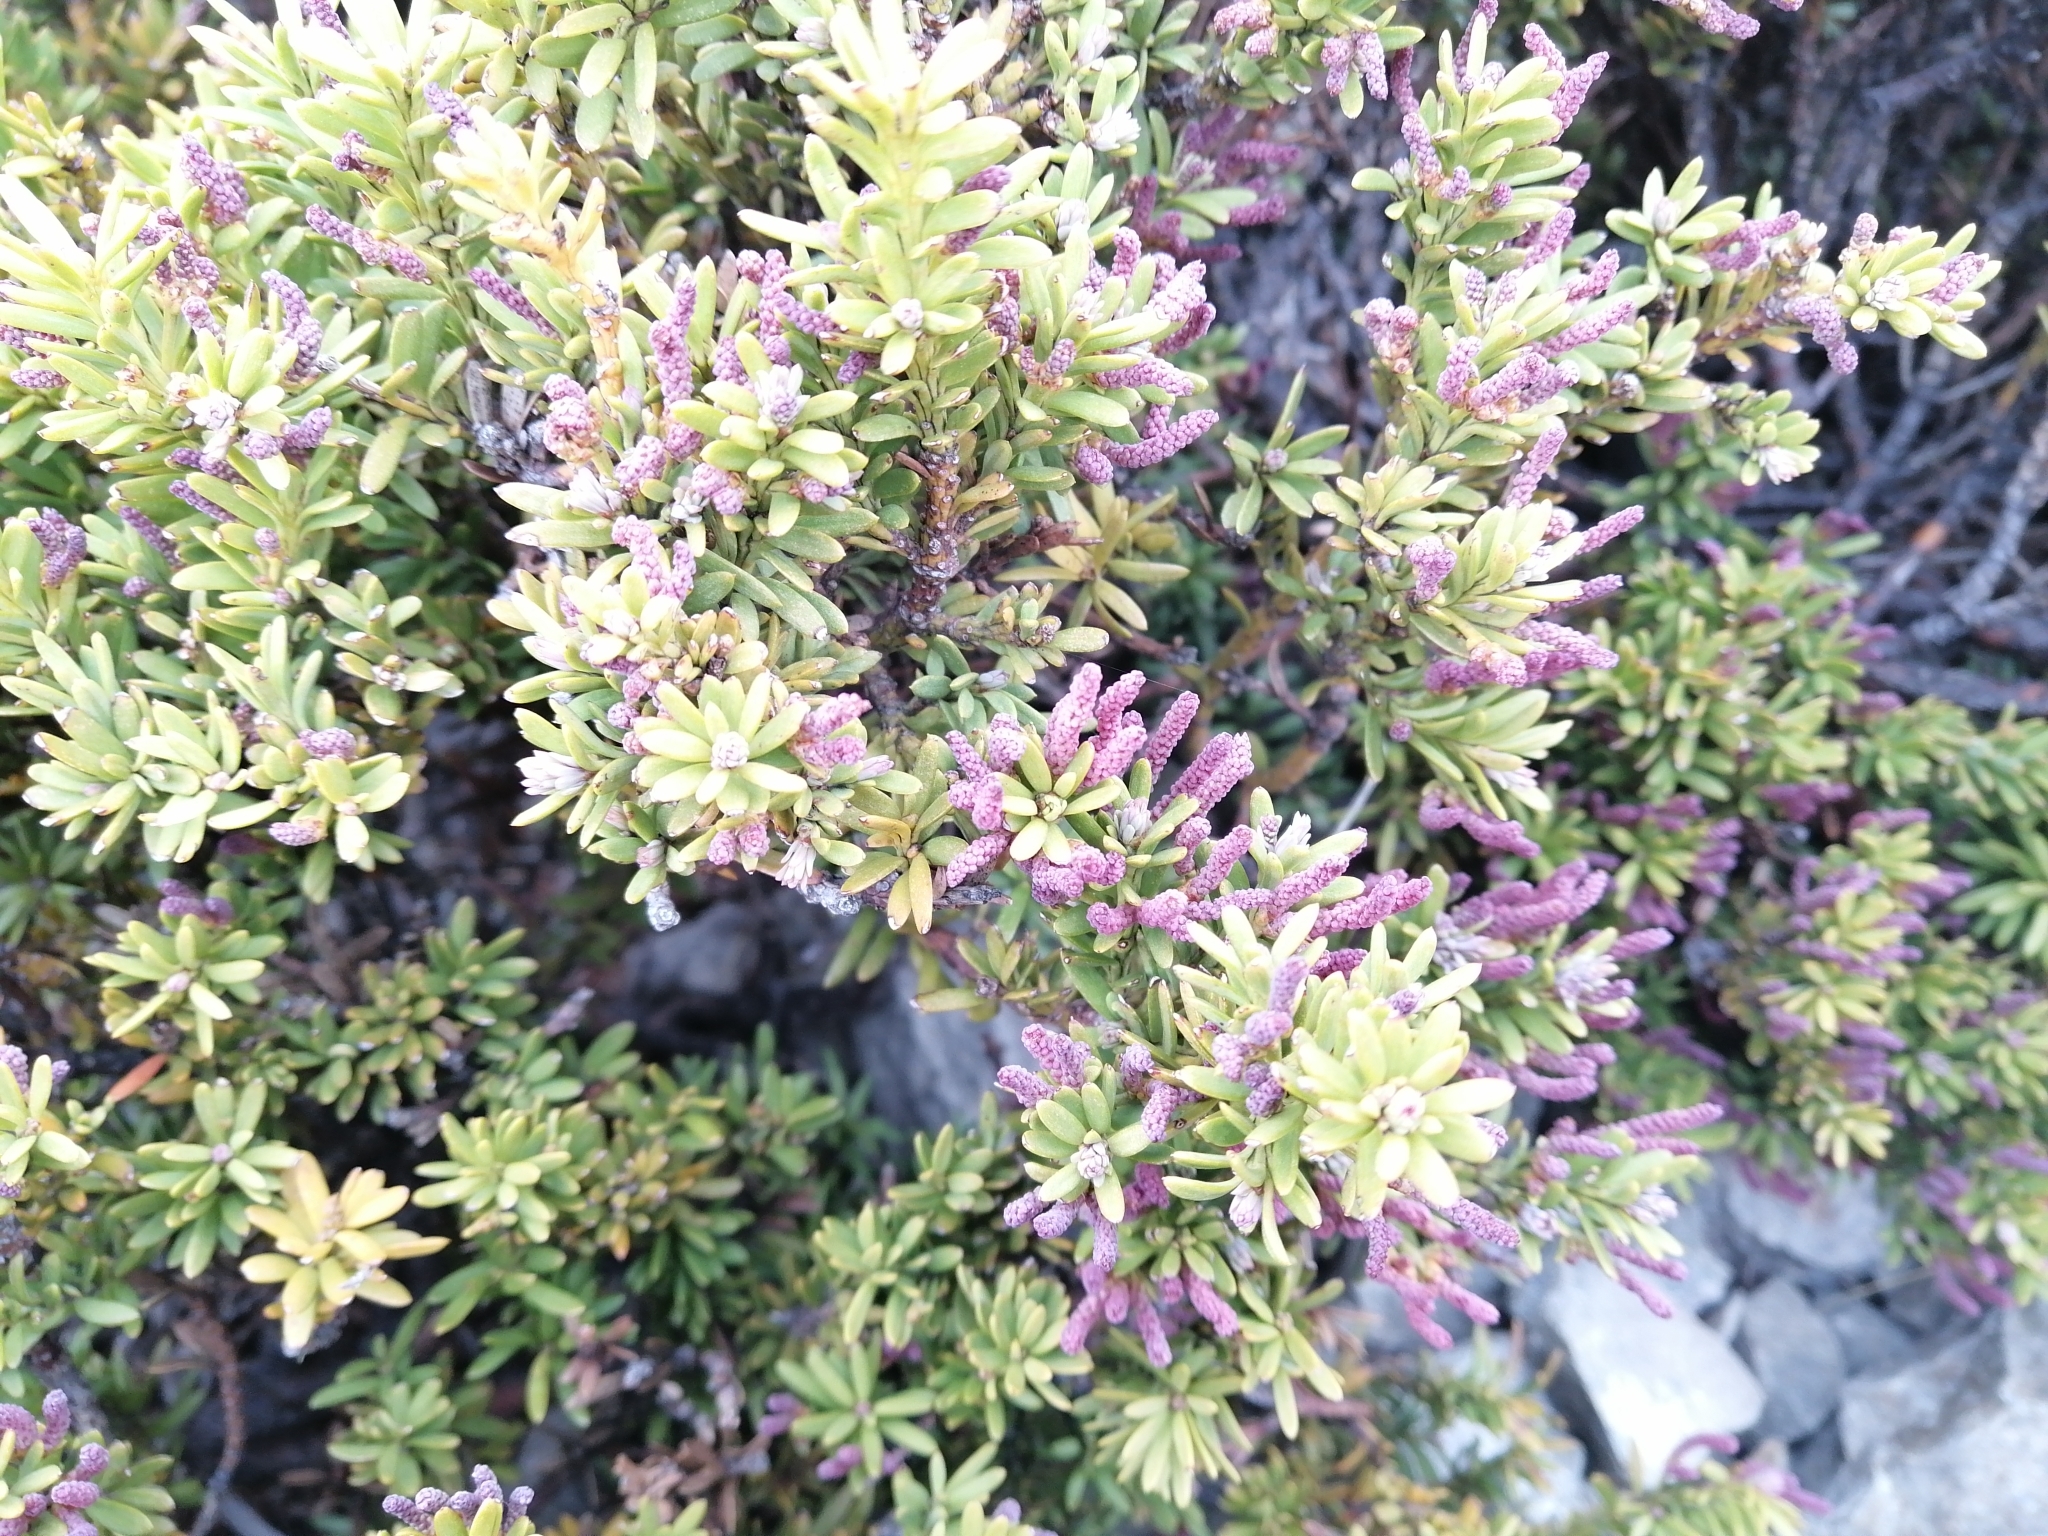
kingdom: Plantae
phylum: Tracheophyta
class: Pinopsida
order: Pinales
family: Podocarpaceae
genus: Podocarpus
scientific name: Podocarpus nivalis
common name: Alpine totara
